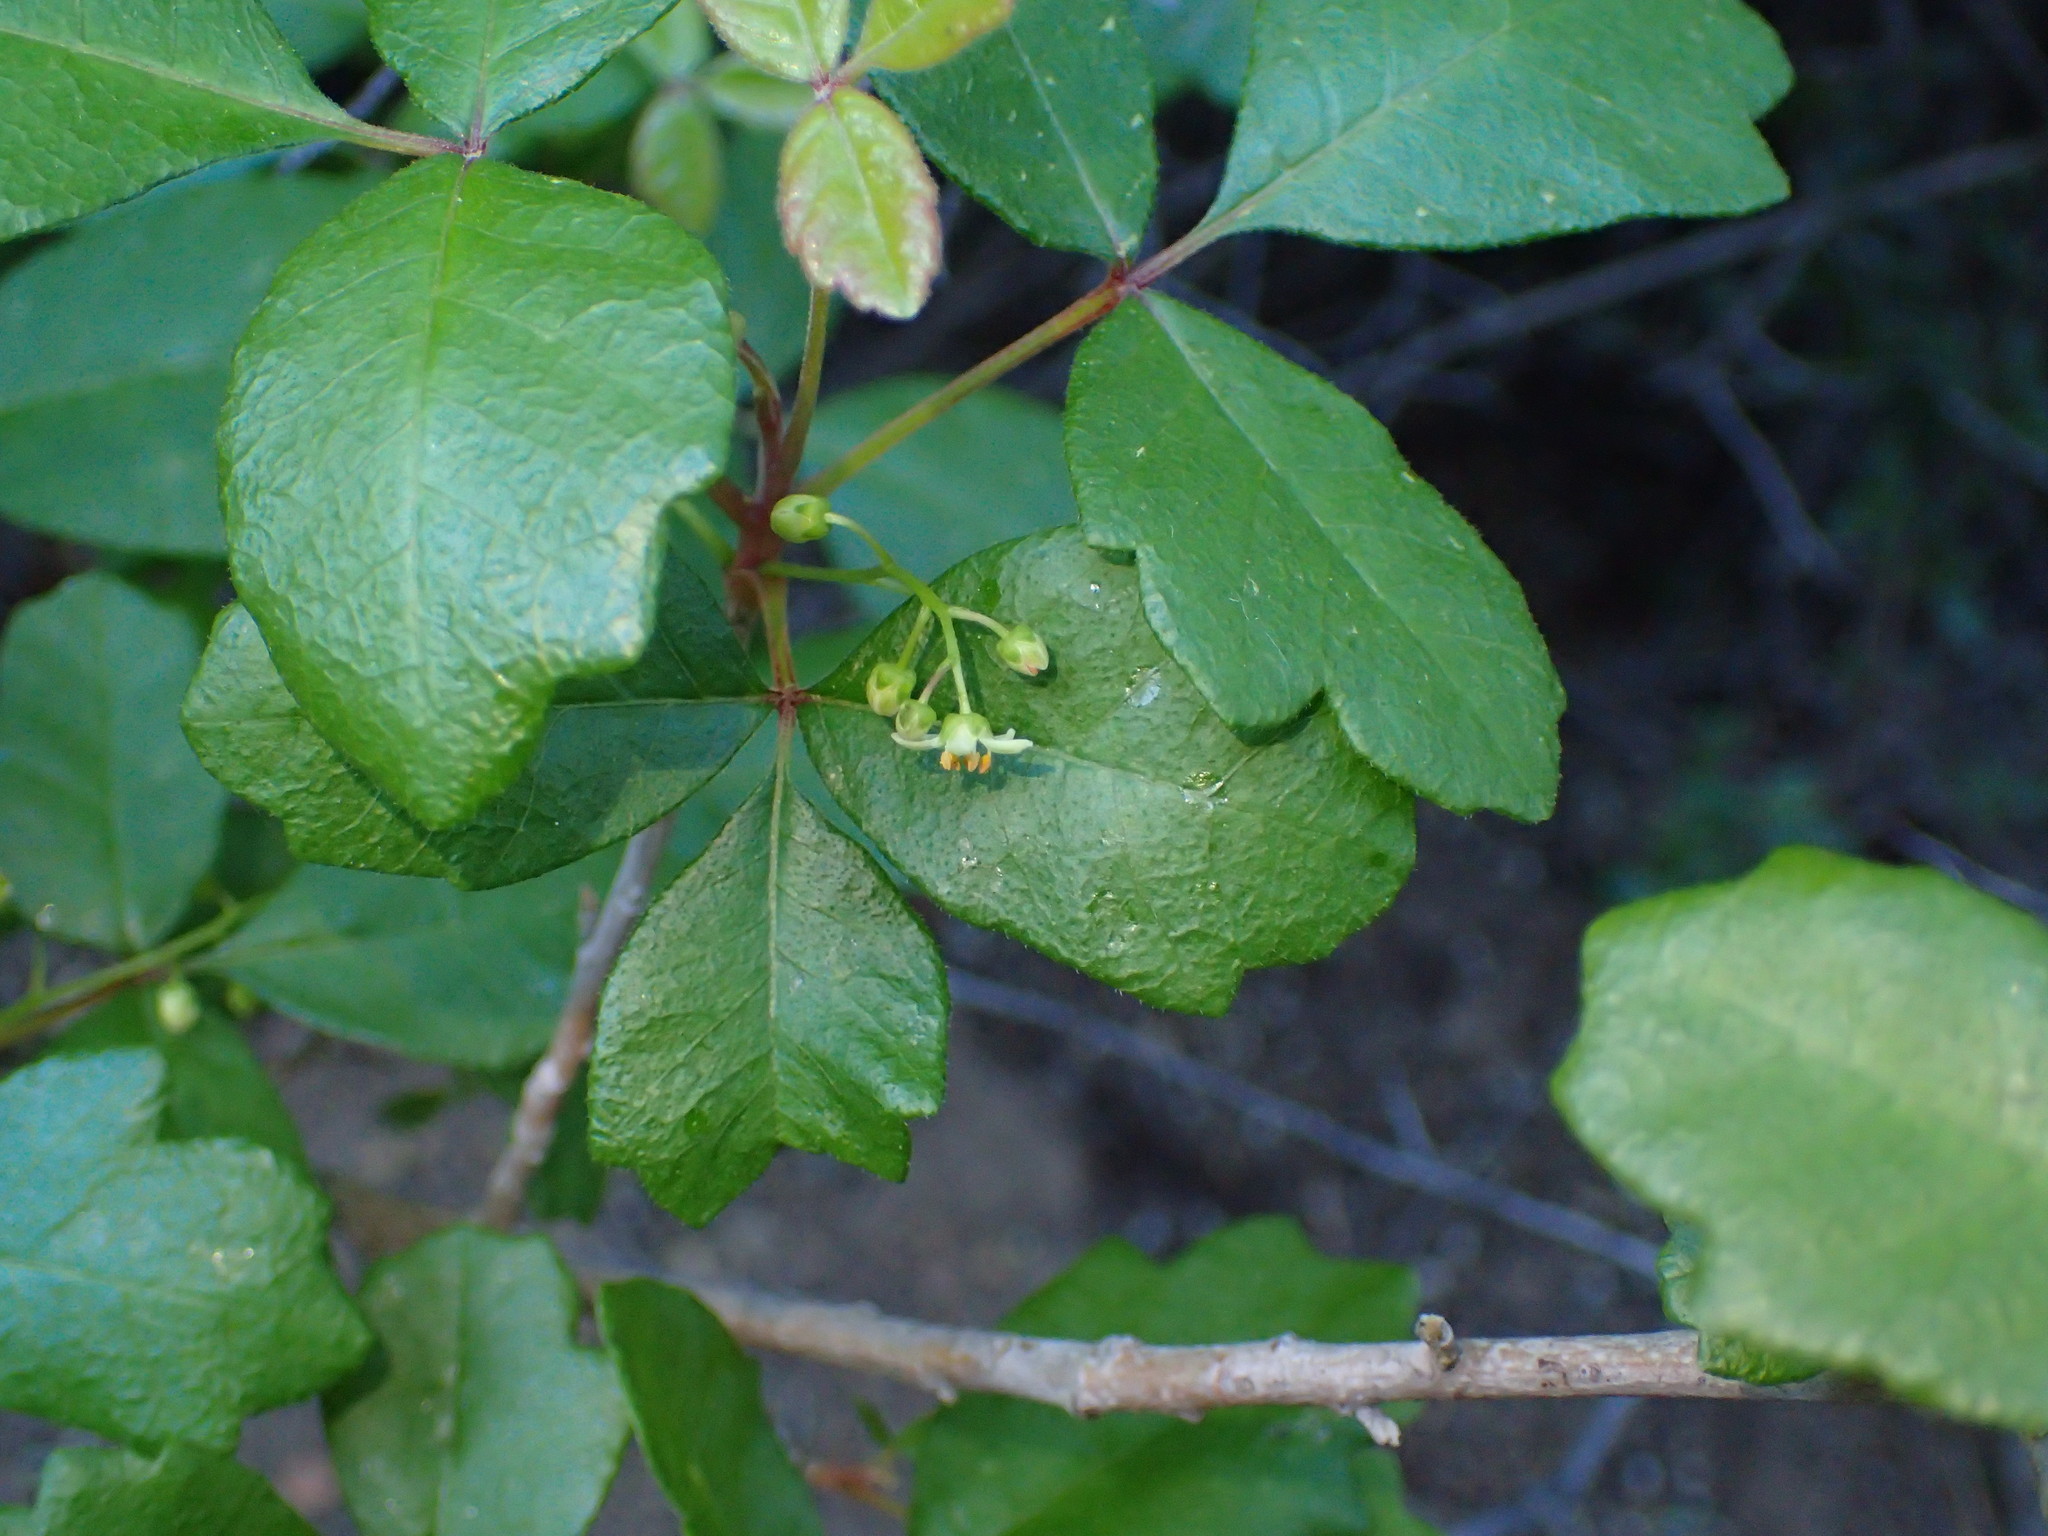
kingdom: Plantae
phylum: Tracheophyta
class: Magnoliopsida
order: Sapindales
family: Anacardiaceae
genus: Toxicodendron
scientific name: Toxicodendron diversilobum
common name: Pacific poison-oak
